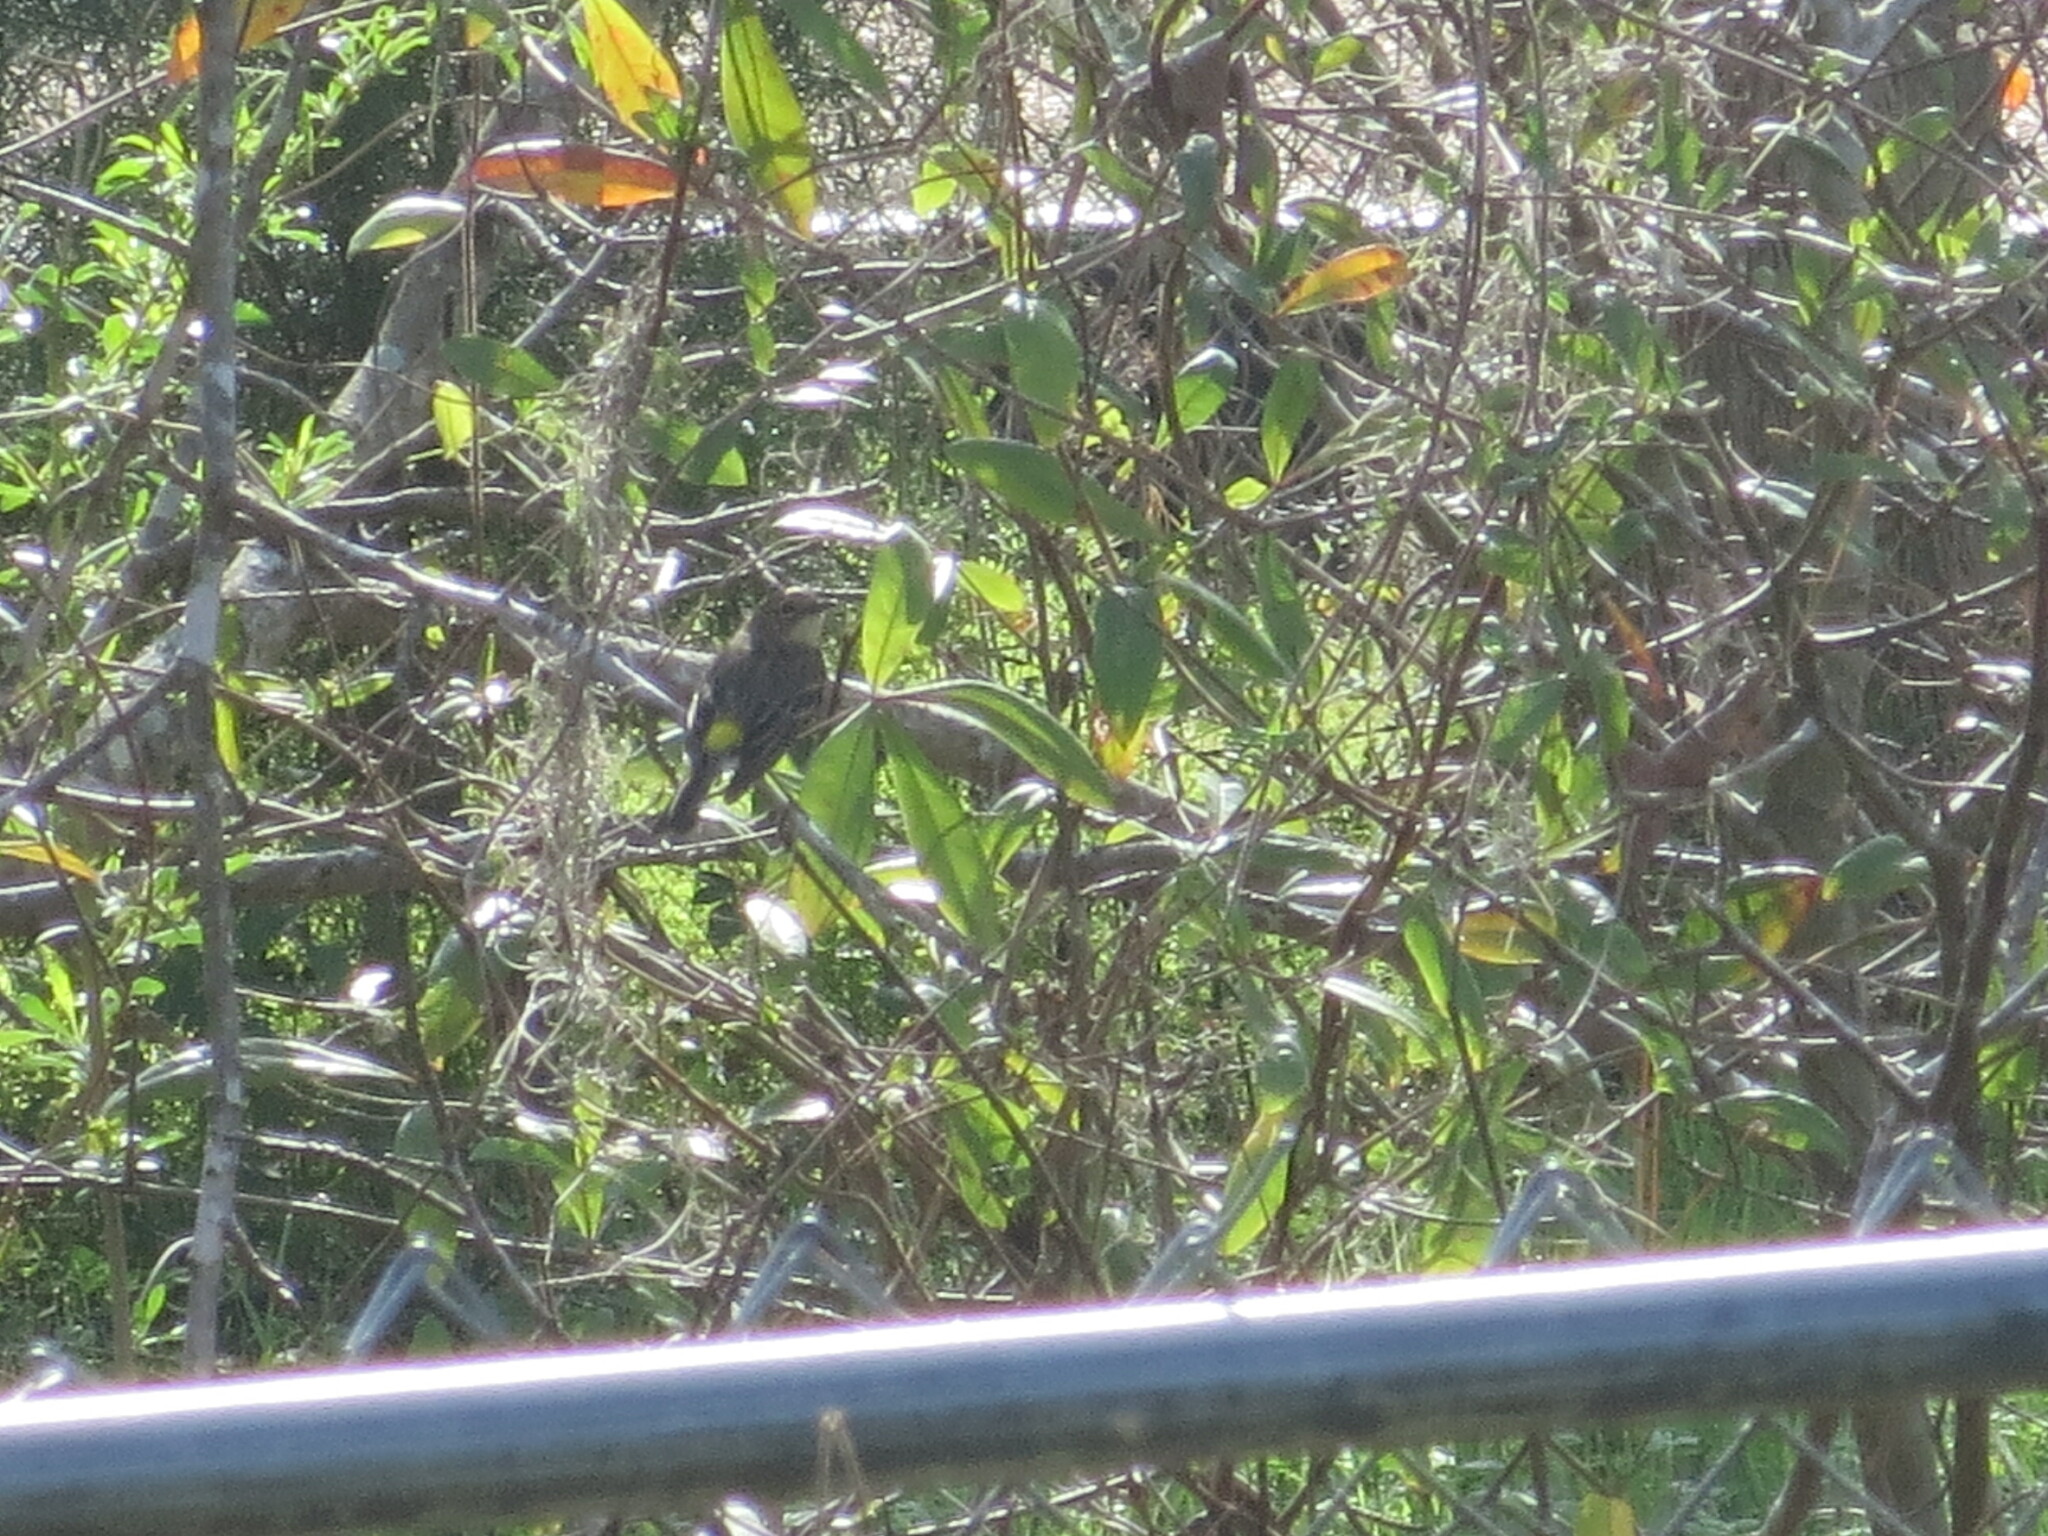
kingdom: Animalia
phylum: Chordata
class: Aves
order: Passeriformes
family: Parulidae
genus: Setophaga
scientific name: Setophaga coronata
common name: Myrtle warbler
